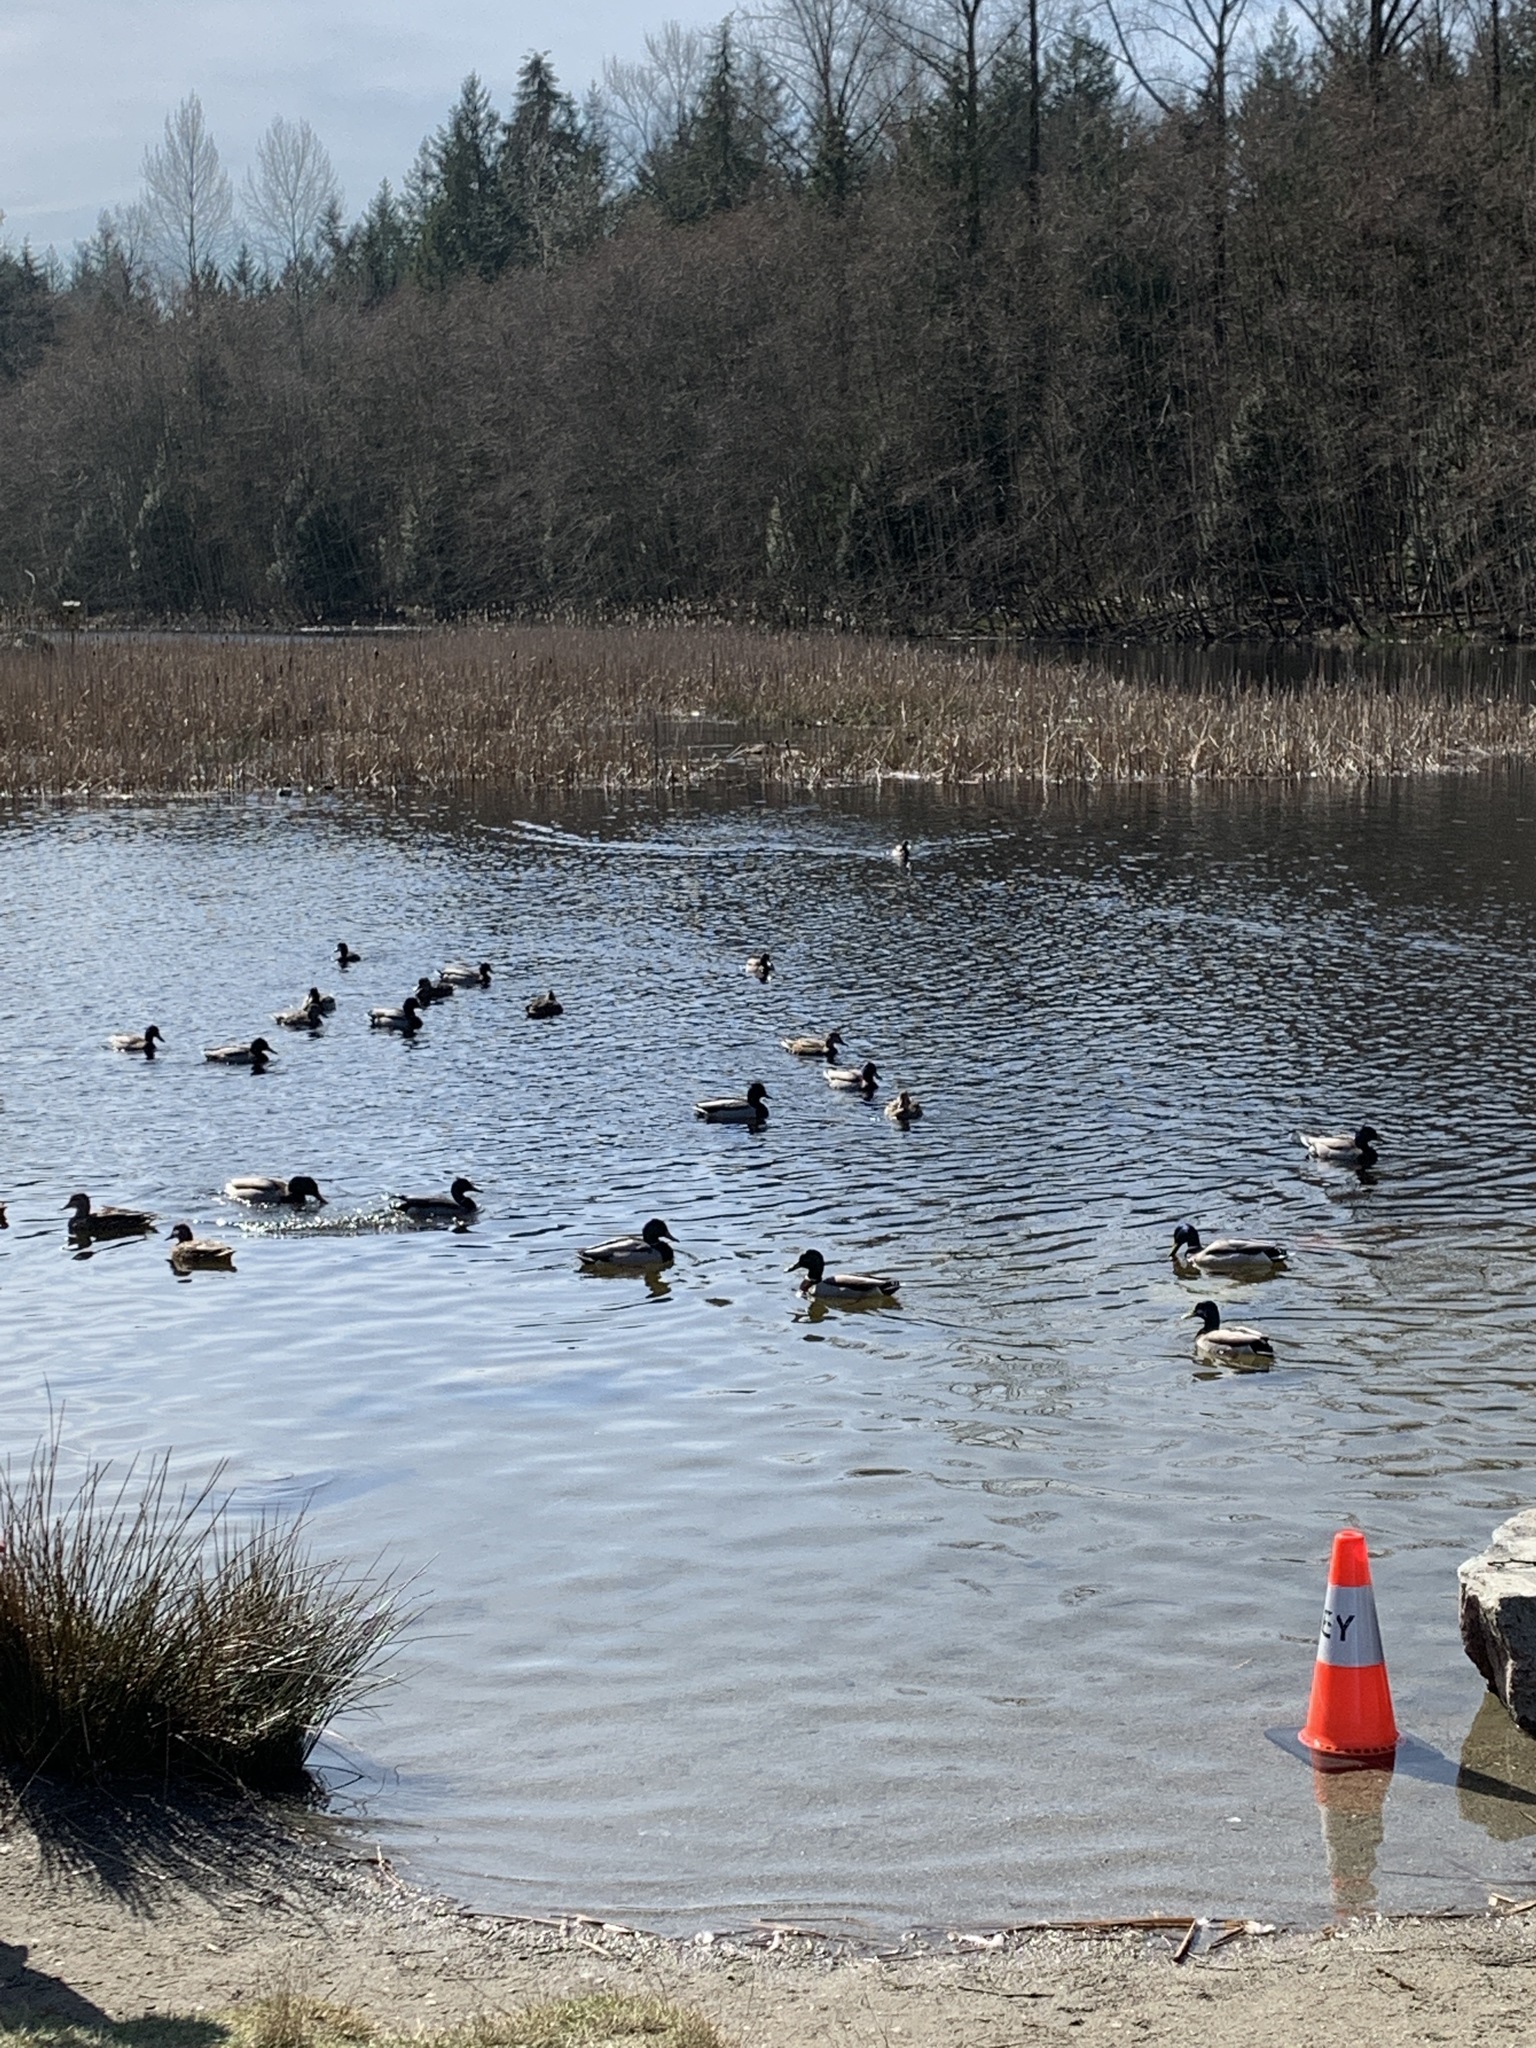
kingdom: Animalia
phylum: Chordata
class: Aves
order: Anseriformes
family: Anatidae
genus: Anas
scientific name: Anas platyrhynchos
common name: Mallard
